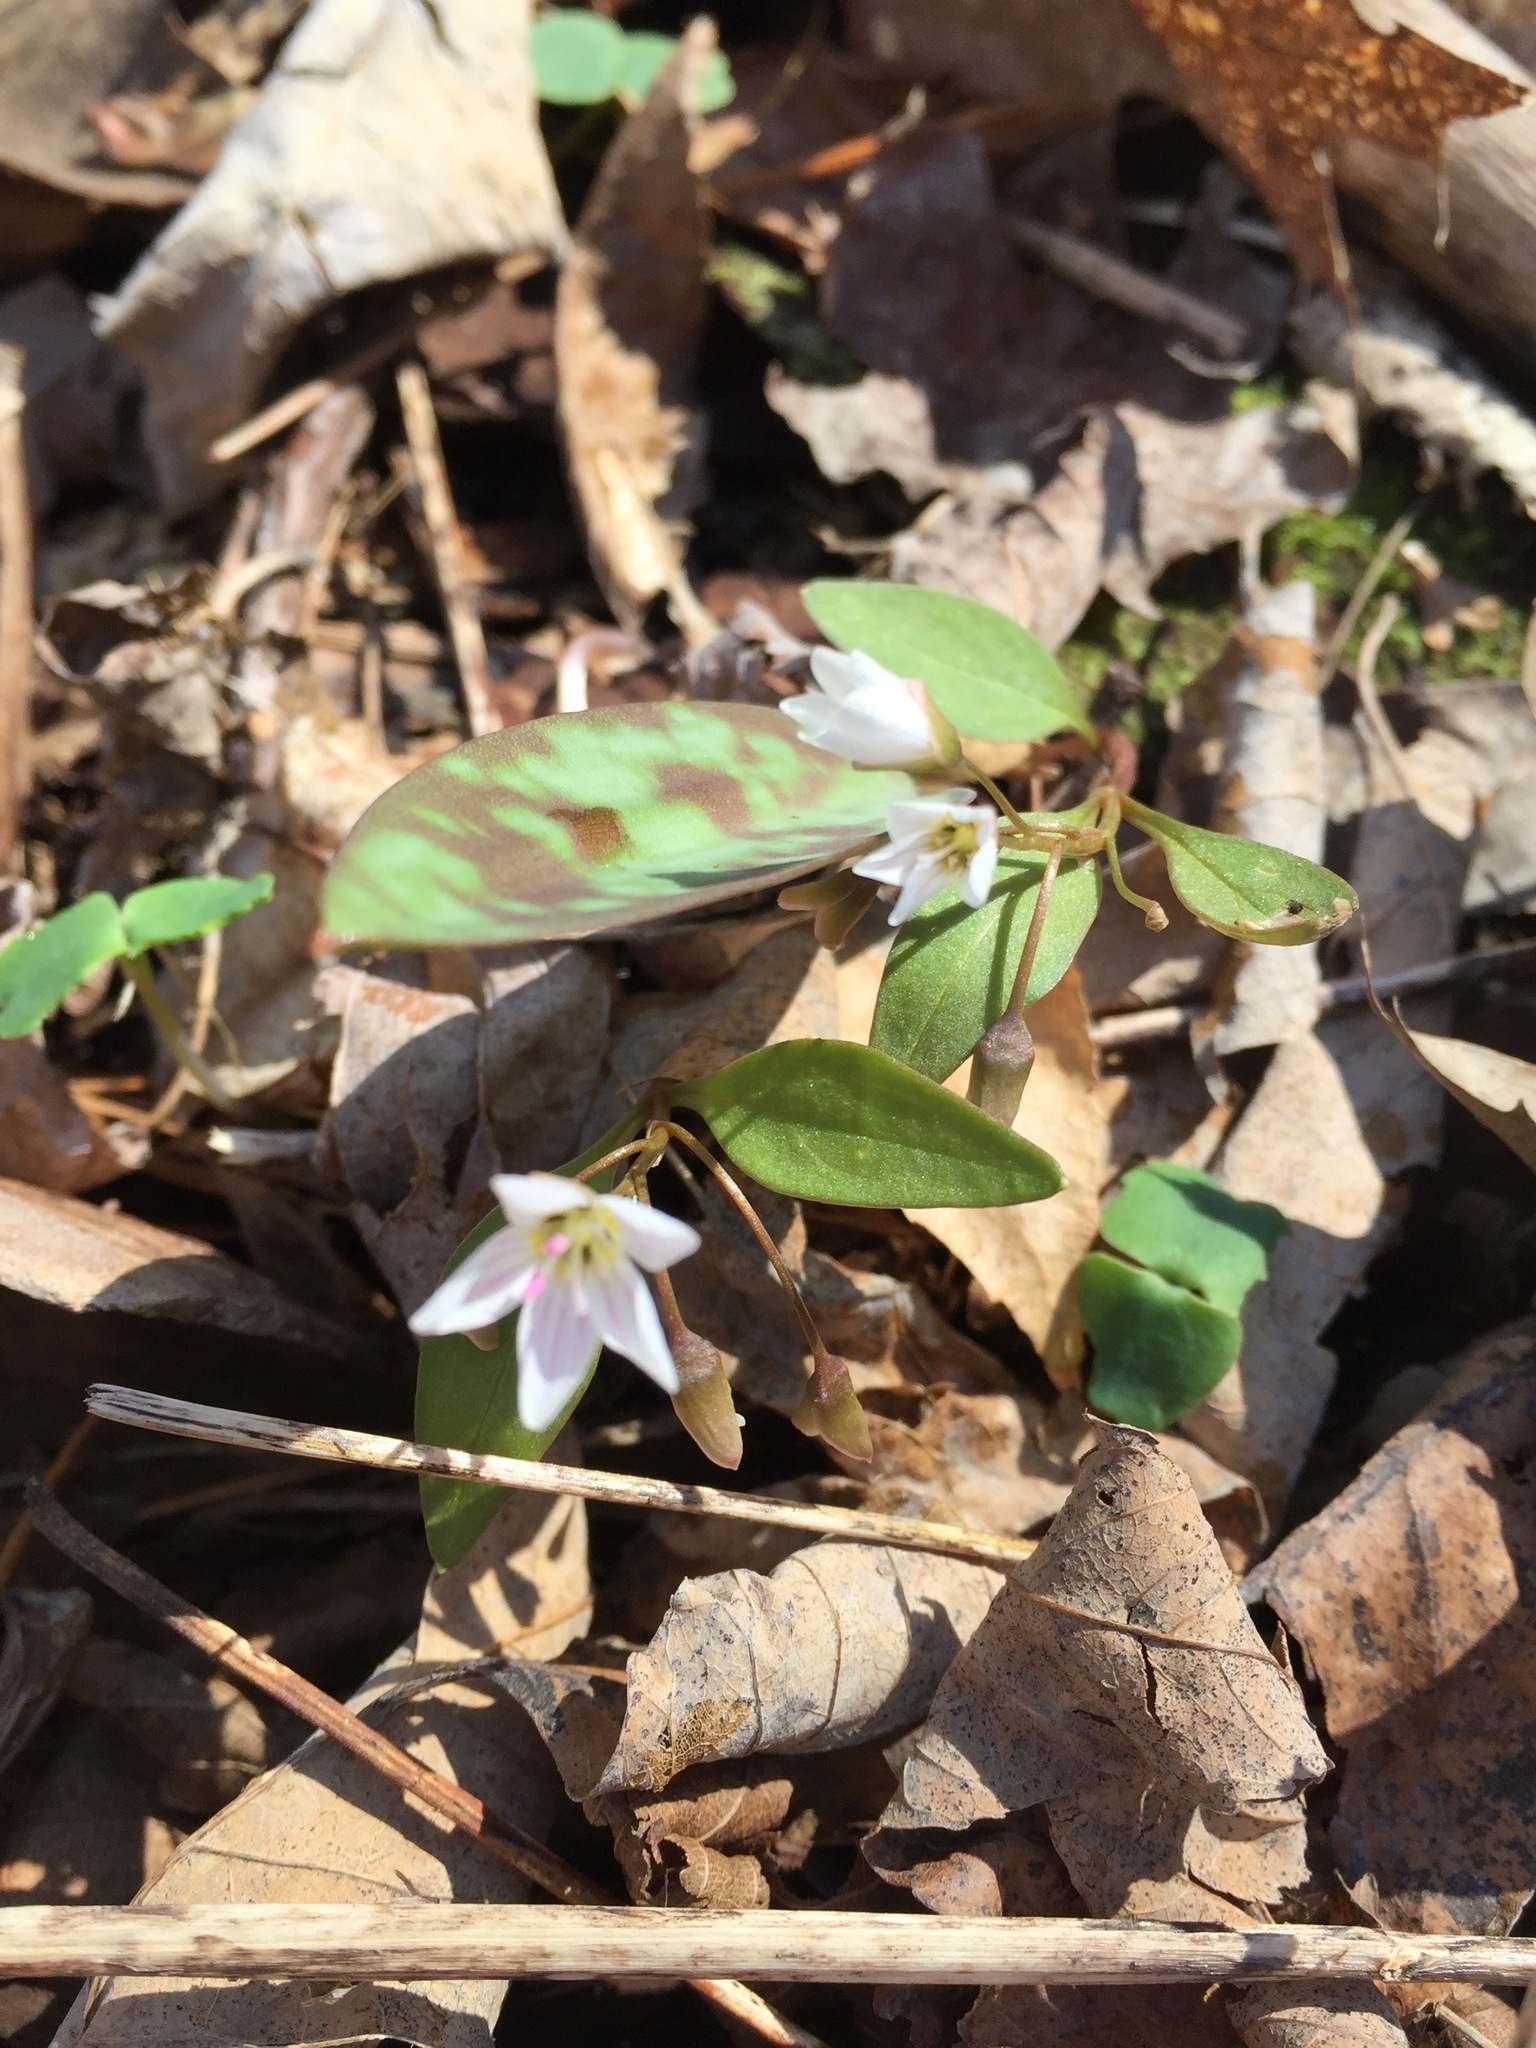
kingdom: Plantae
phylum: Tracheophyta
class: Magnoliopsida
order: Caryophyllales
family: Montiaceae
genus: Claytonia
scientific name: Claytonia caroliniana
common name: Carolina spring beauty
